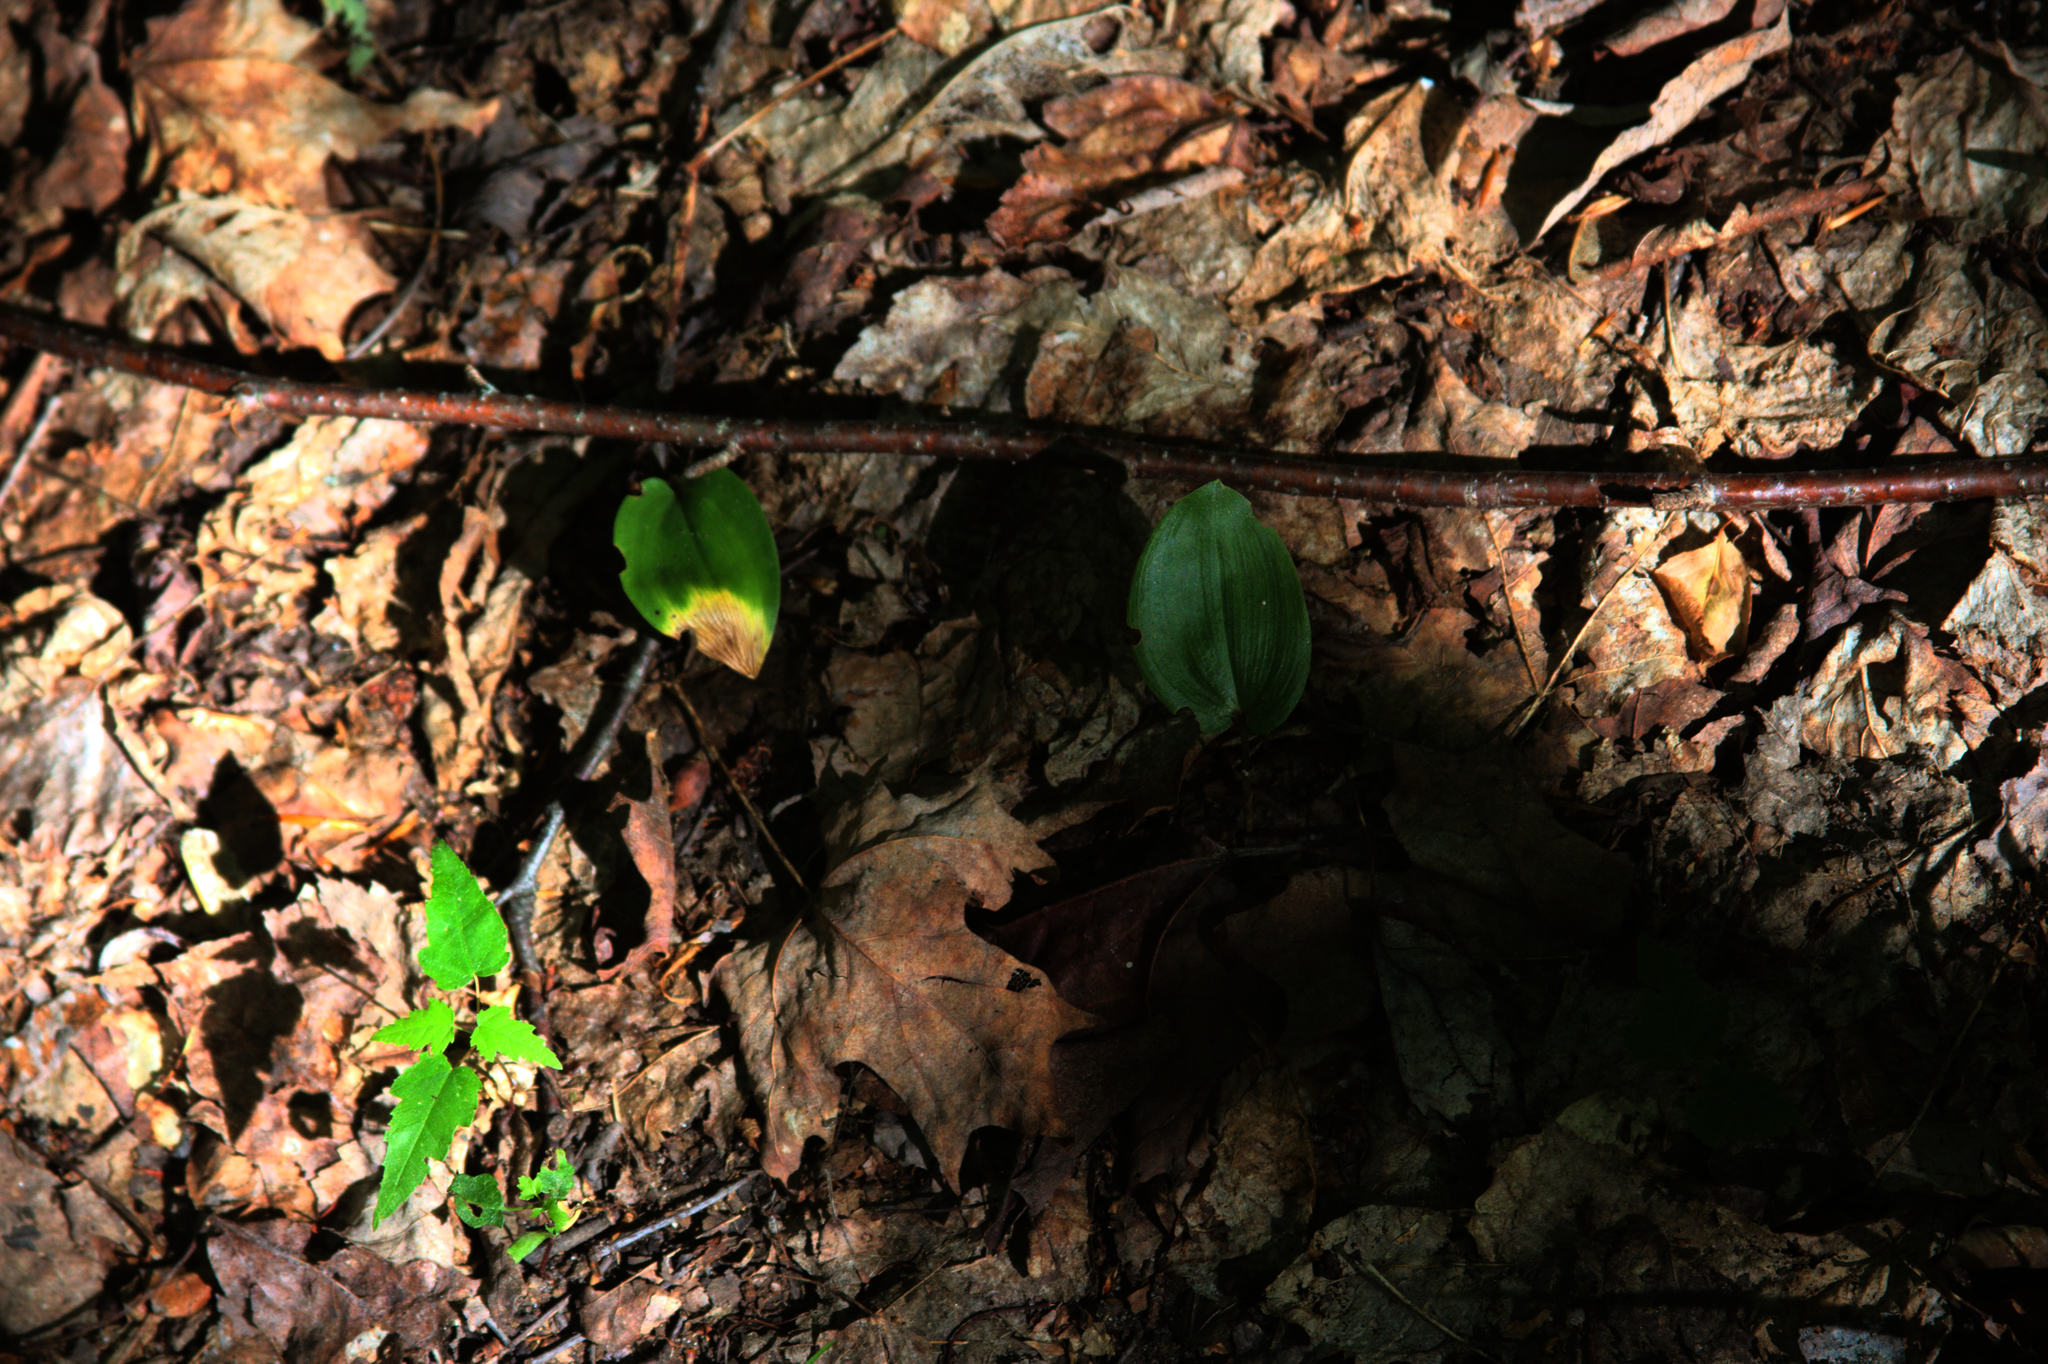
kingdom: Plantae
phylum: Tracheophyta
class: Liliopsida
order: Asparagales
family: Asparagaceae
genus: Maianthemum
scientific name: Maianthemum canadense
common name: False lily-of-the-valley
